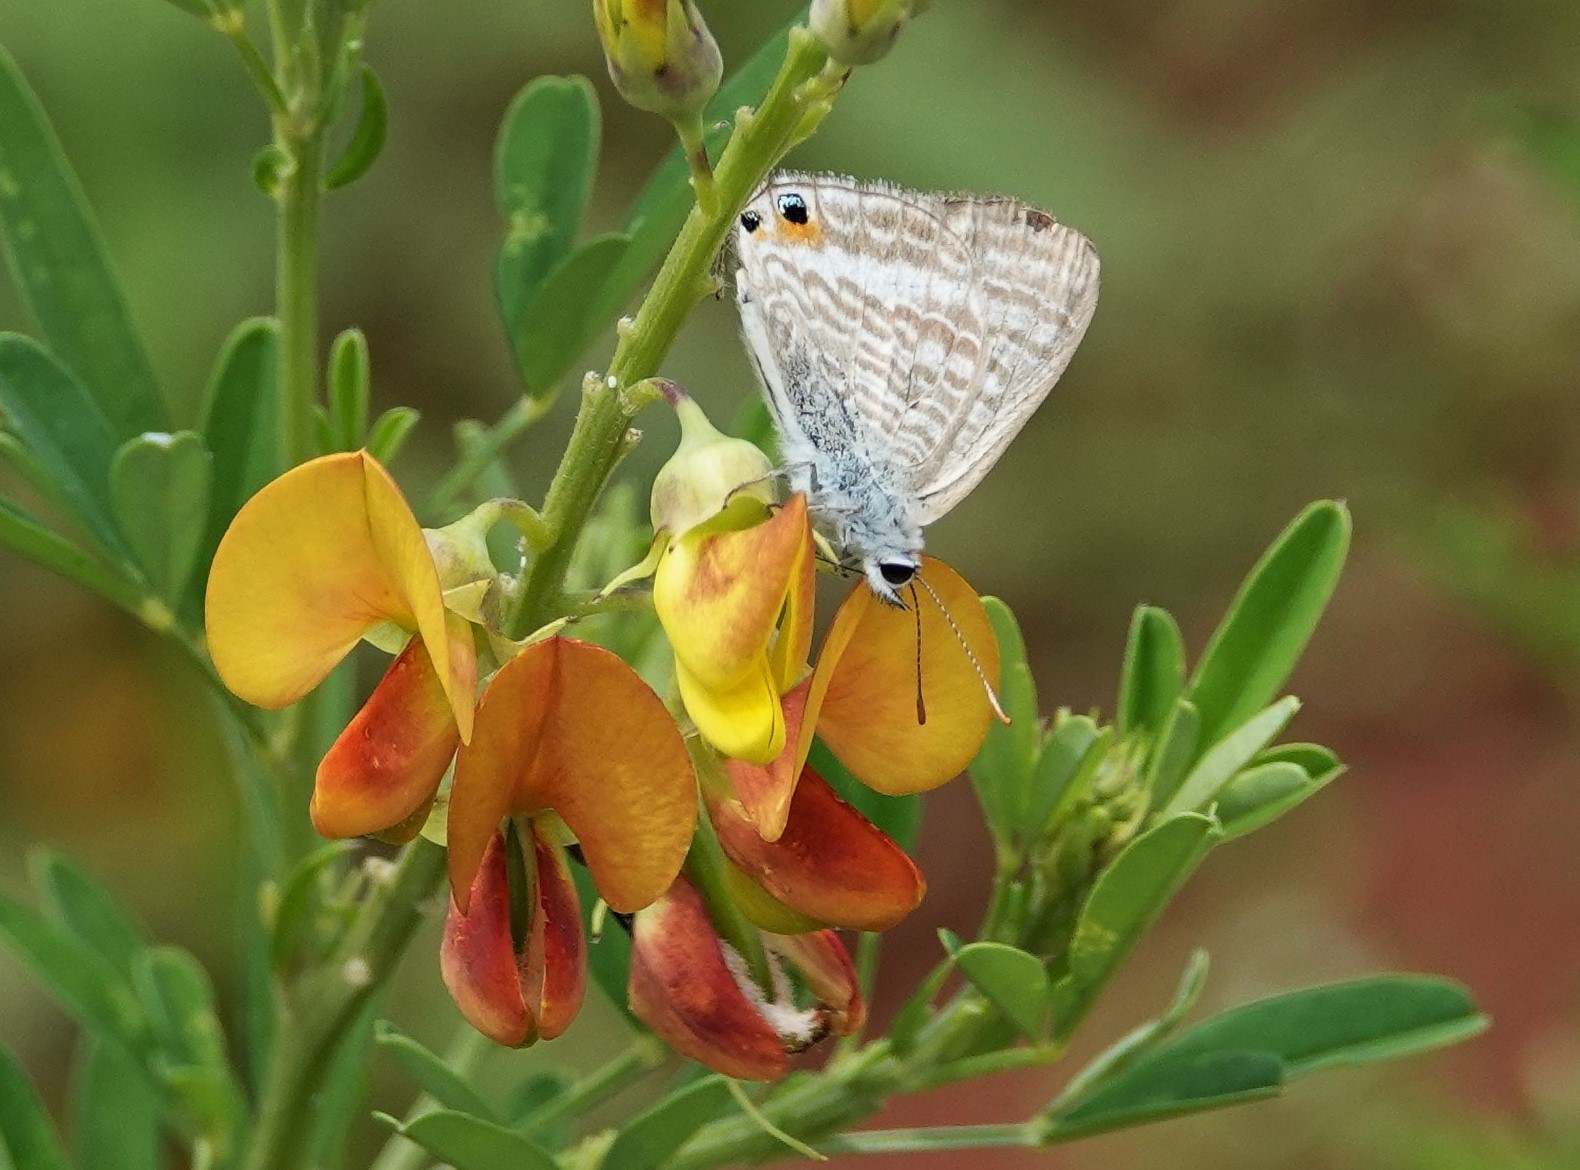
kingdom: Animalia
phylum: Arthropoda
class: Insecta
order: Lepidoptera
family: Lycaenidae
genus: Lampides
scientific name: Lampides boeticus
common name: Long-tailed blue
